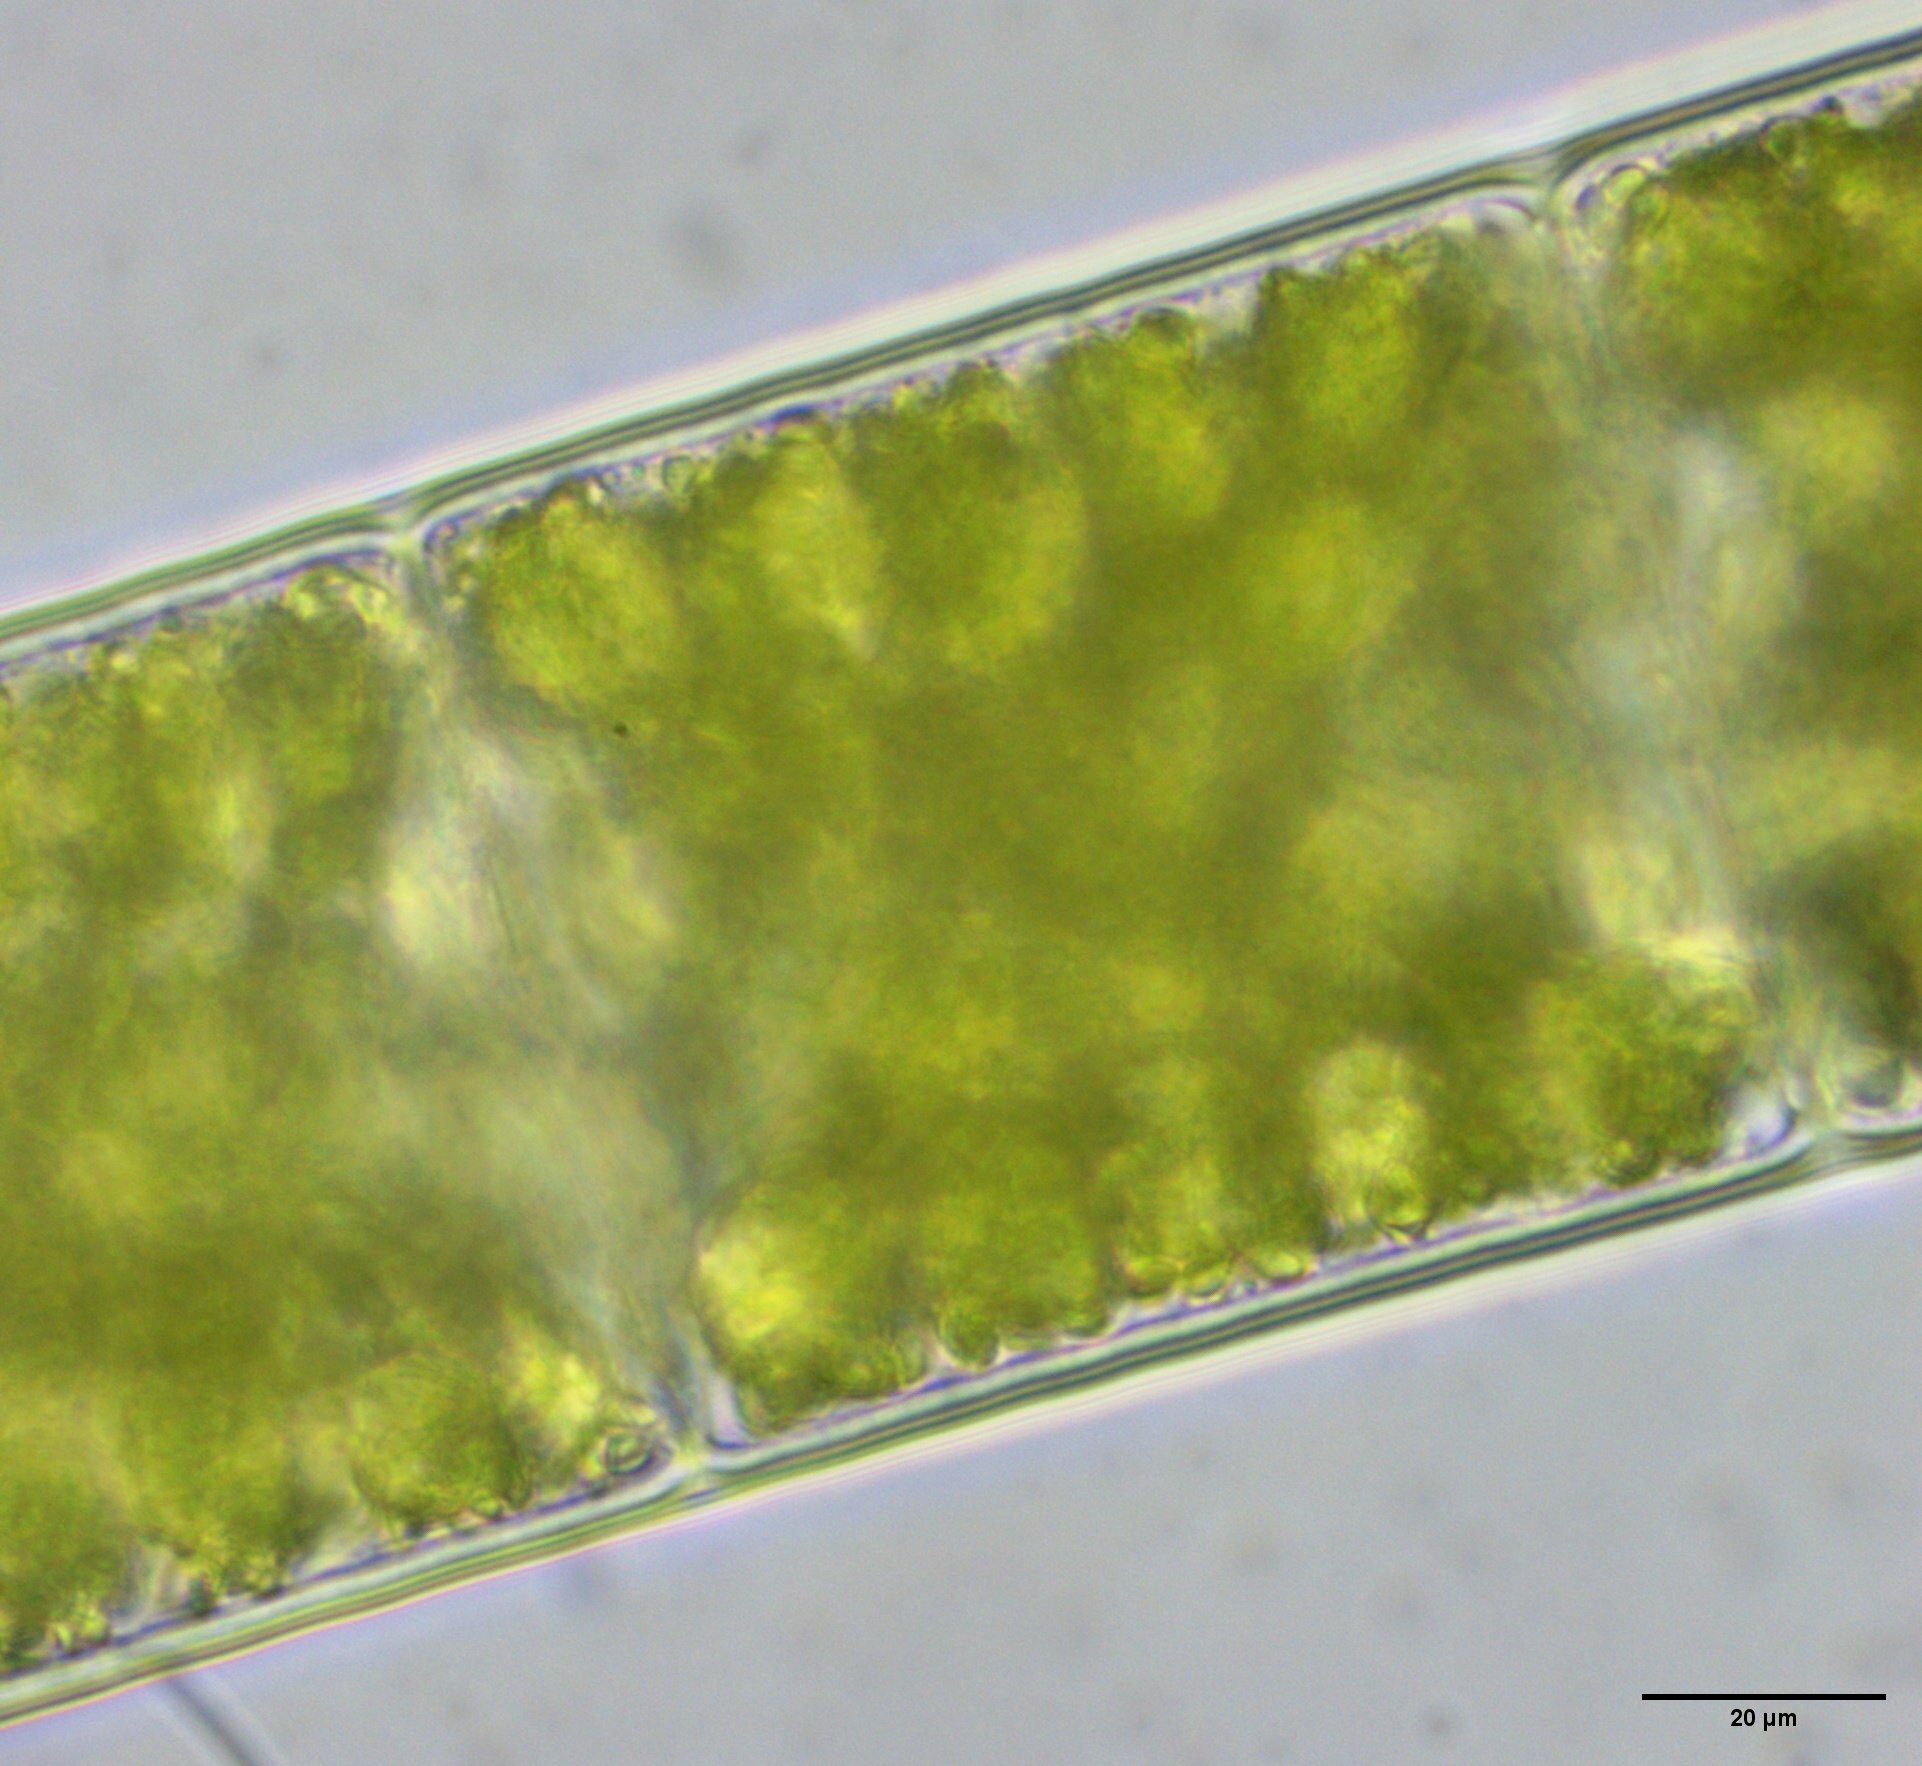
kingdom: Plantae
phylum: Charophyta
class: Zygnematophyceae
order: Zygnematales
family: Zygnemataceae
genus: Spirogyra
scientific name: Spirogyra
